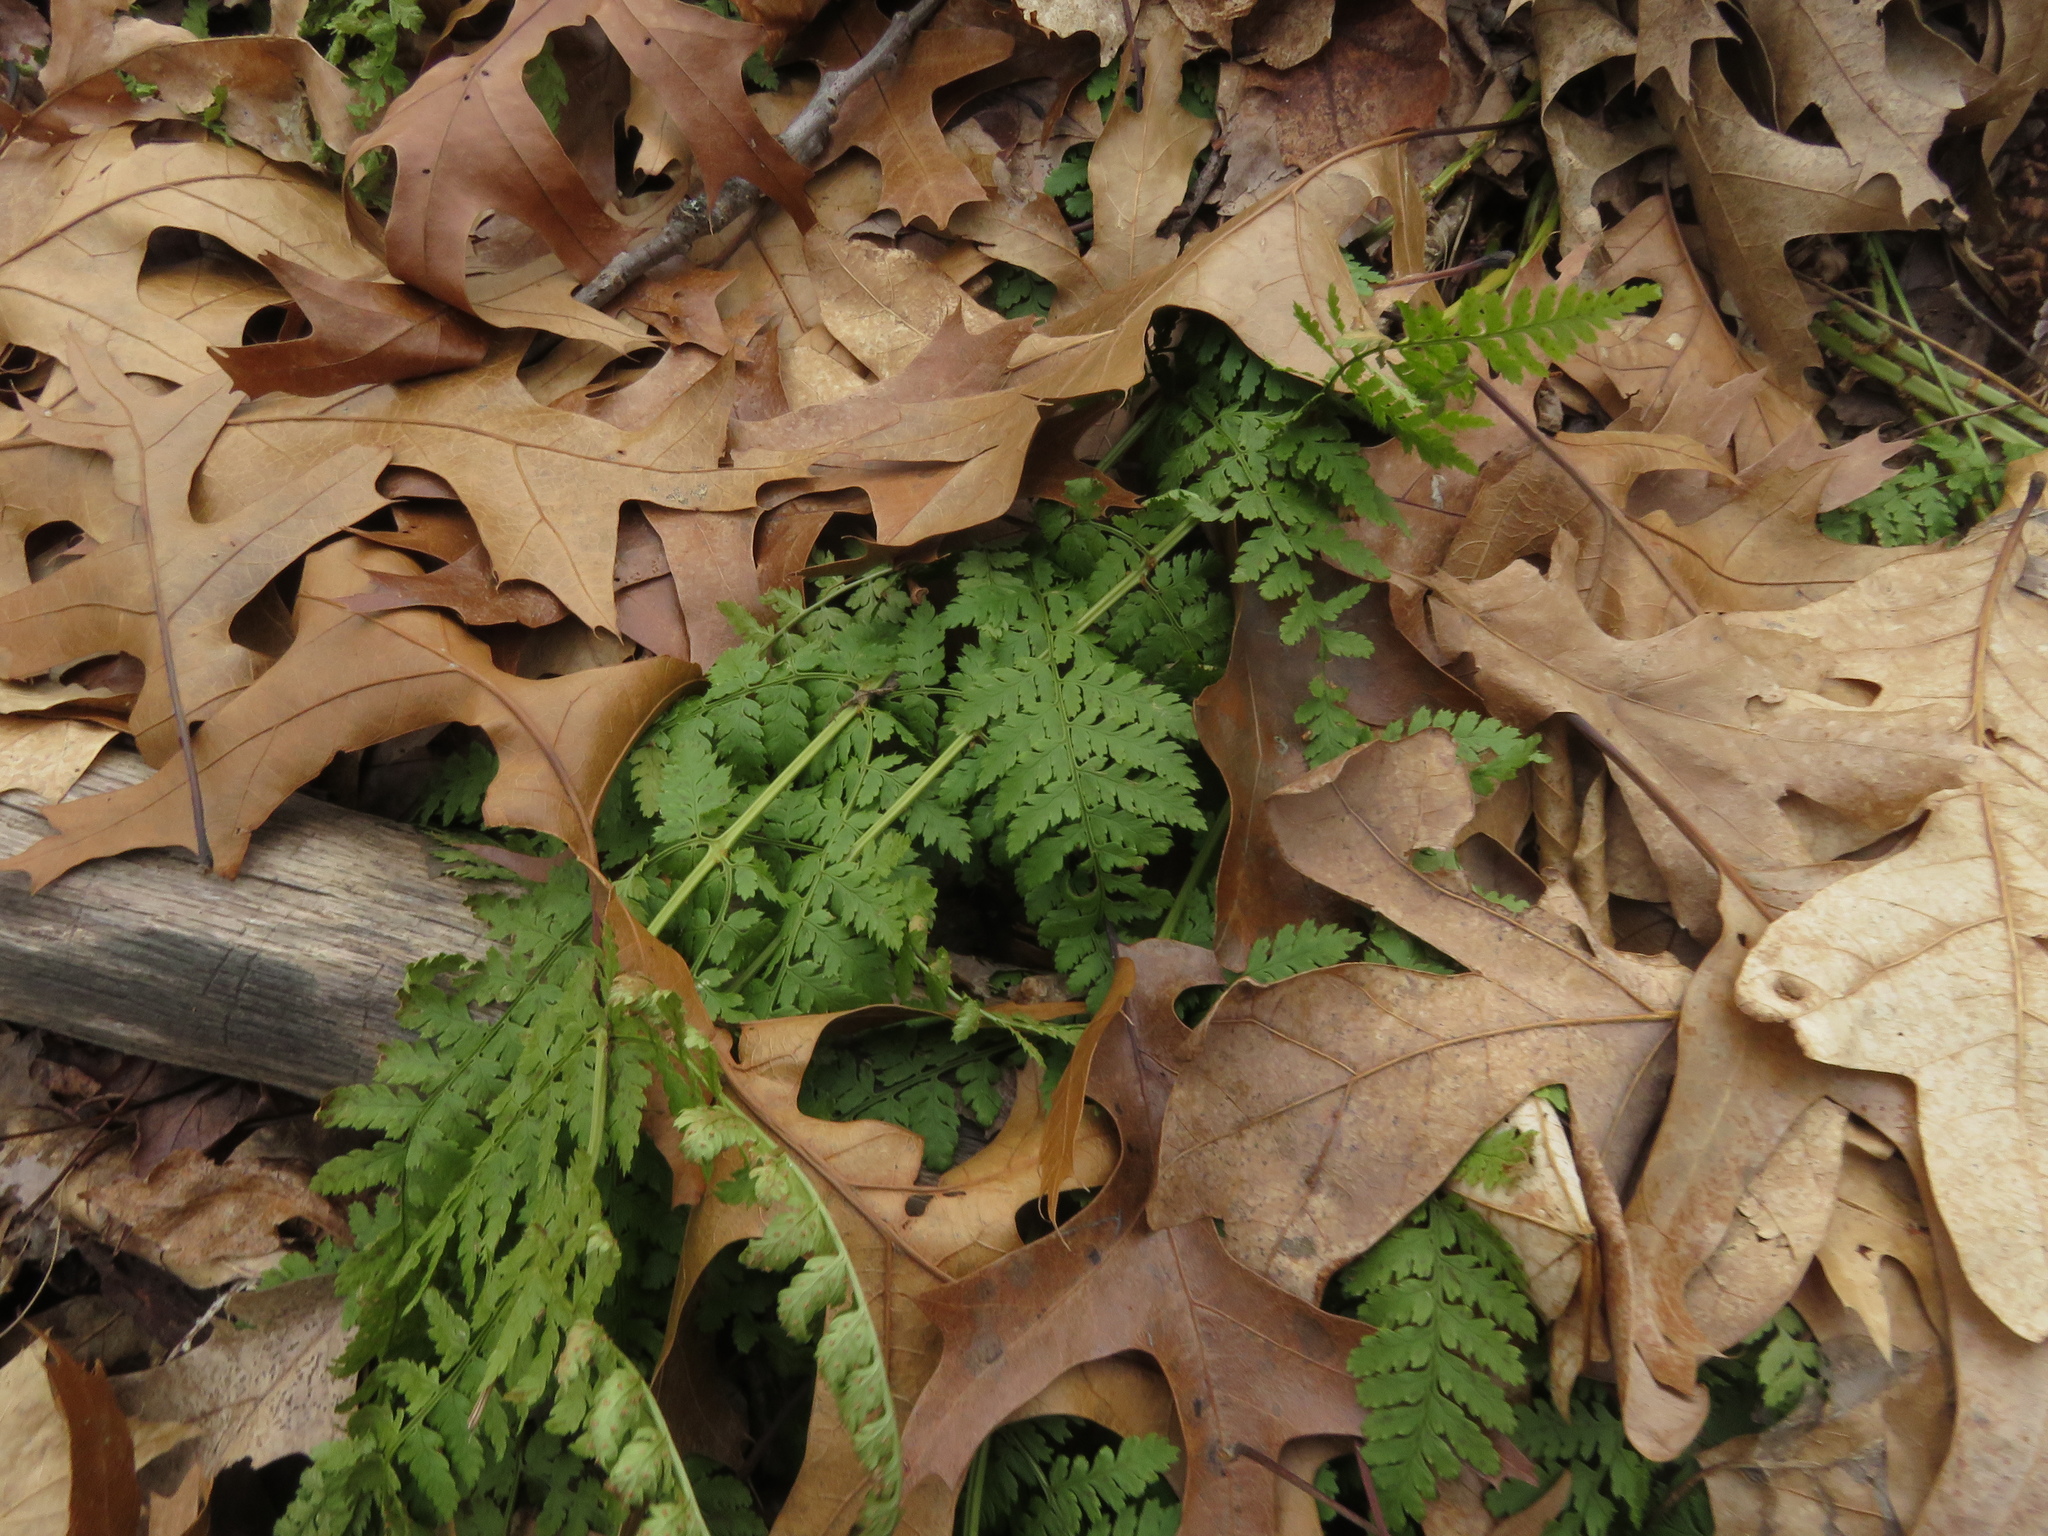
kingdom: Plantae
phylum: Tracheophyta
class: Polypodiopsida
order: Polypodiales
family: Dryopteridaceae
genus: Dryopteris
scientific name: Dryopteris intermedia
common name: Evergreen wood fern
